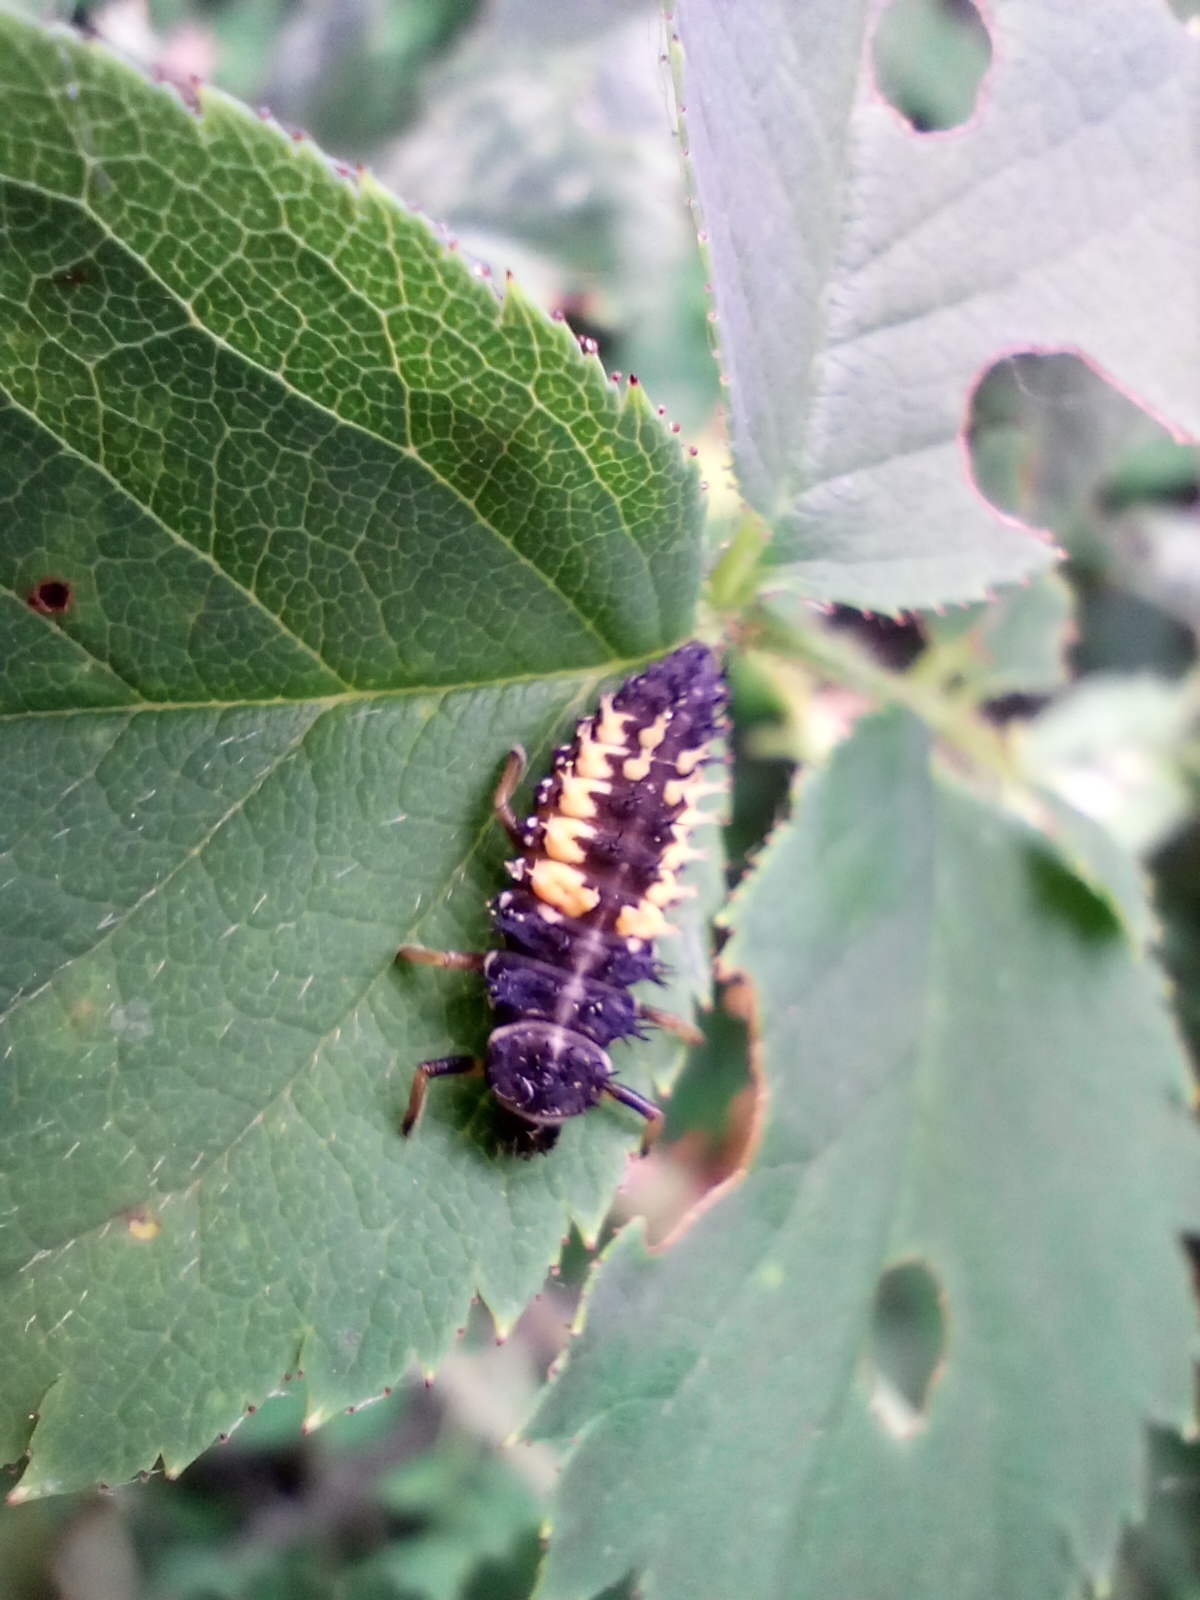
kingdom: Animalia
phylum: Arthropoda
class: Insecta
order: Coleoptera
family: Coccinellidae
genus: Harmonia
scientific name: Harmonia axyridis
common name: Harlequin ladybird
